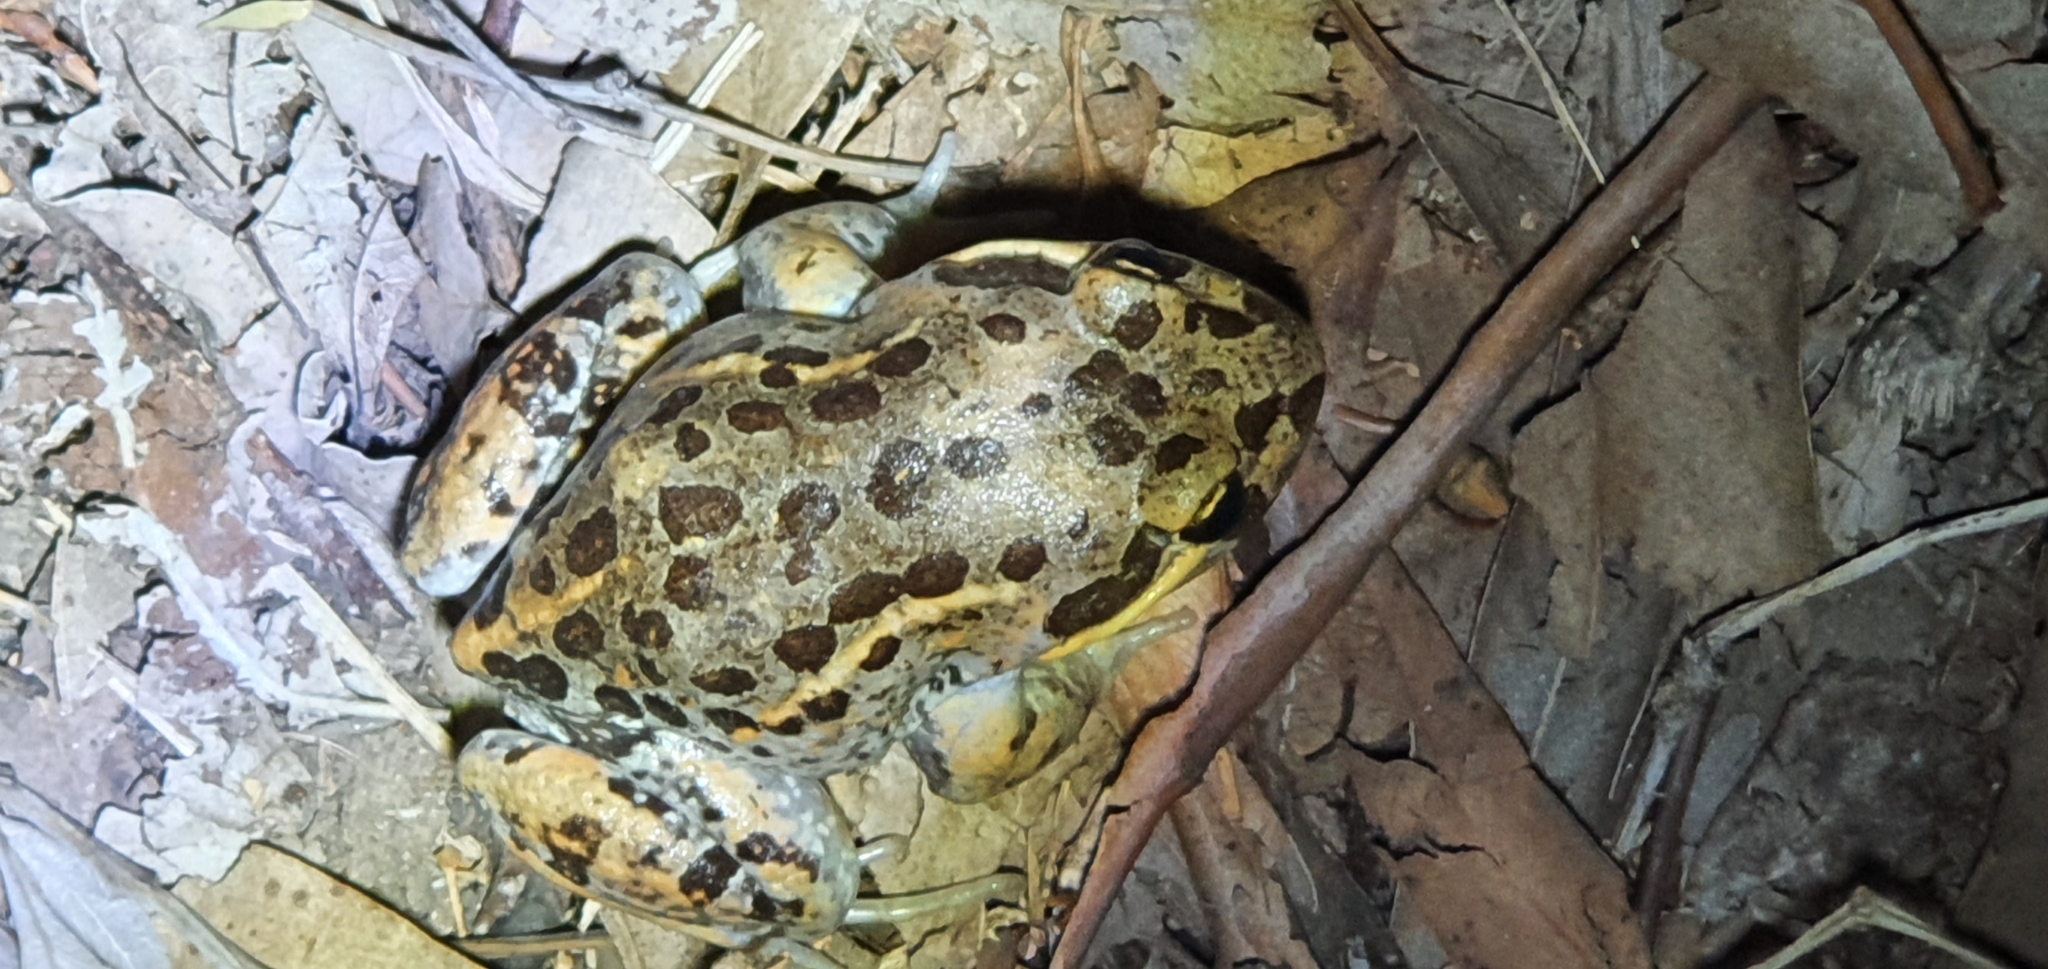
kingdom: Animalia
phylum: Chordata
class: Amphibia
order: Anura
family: Limnodynastidae
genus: Limnodynastes
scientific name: Limnodynastes salmini
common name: Salmon-striped frog
